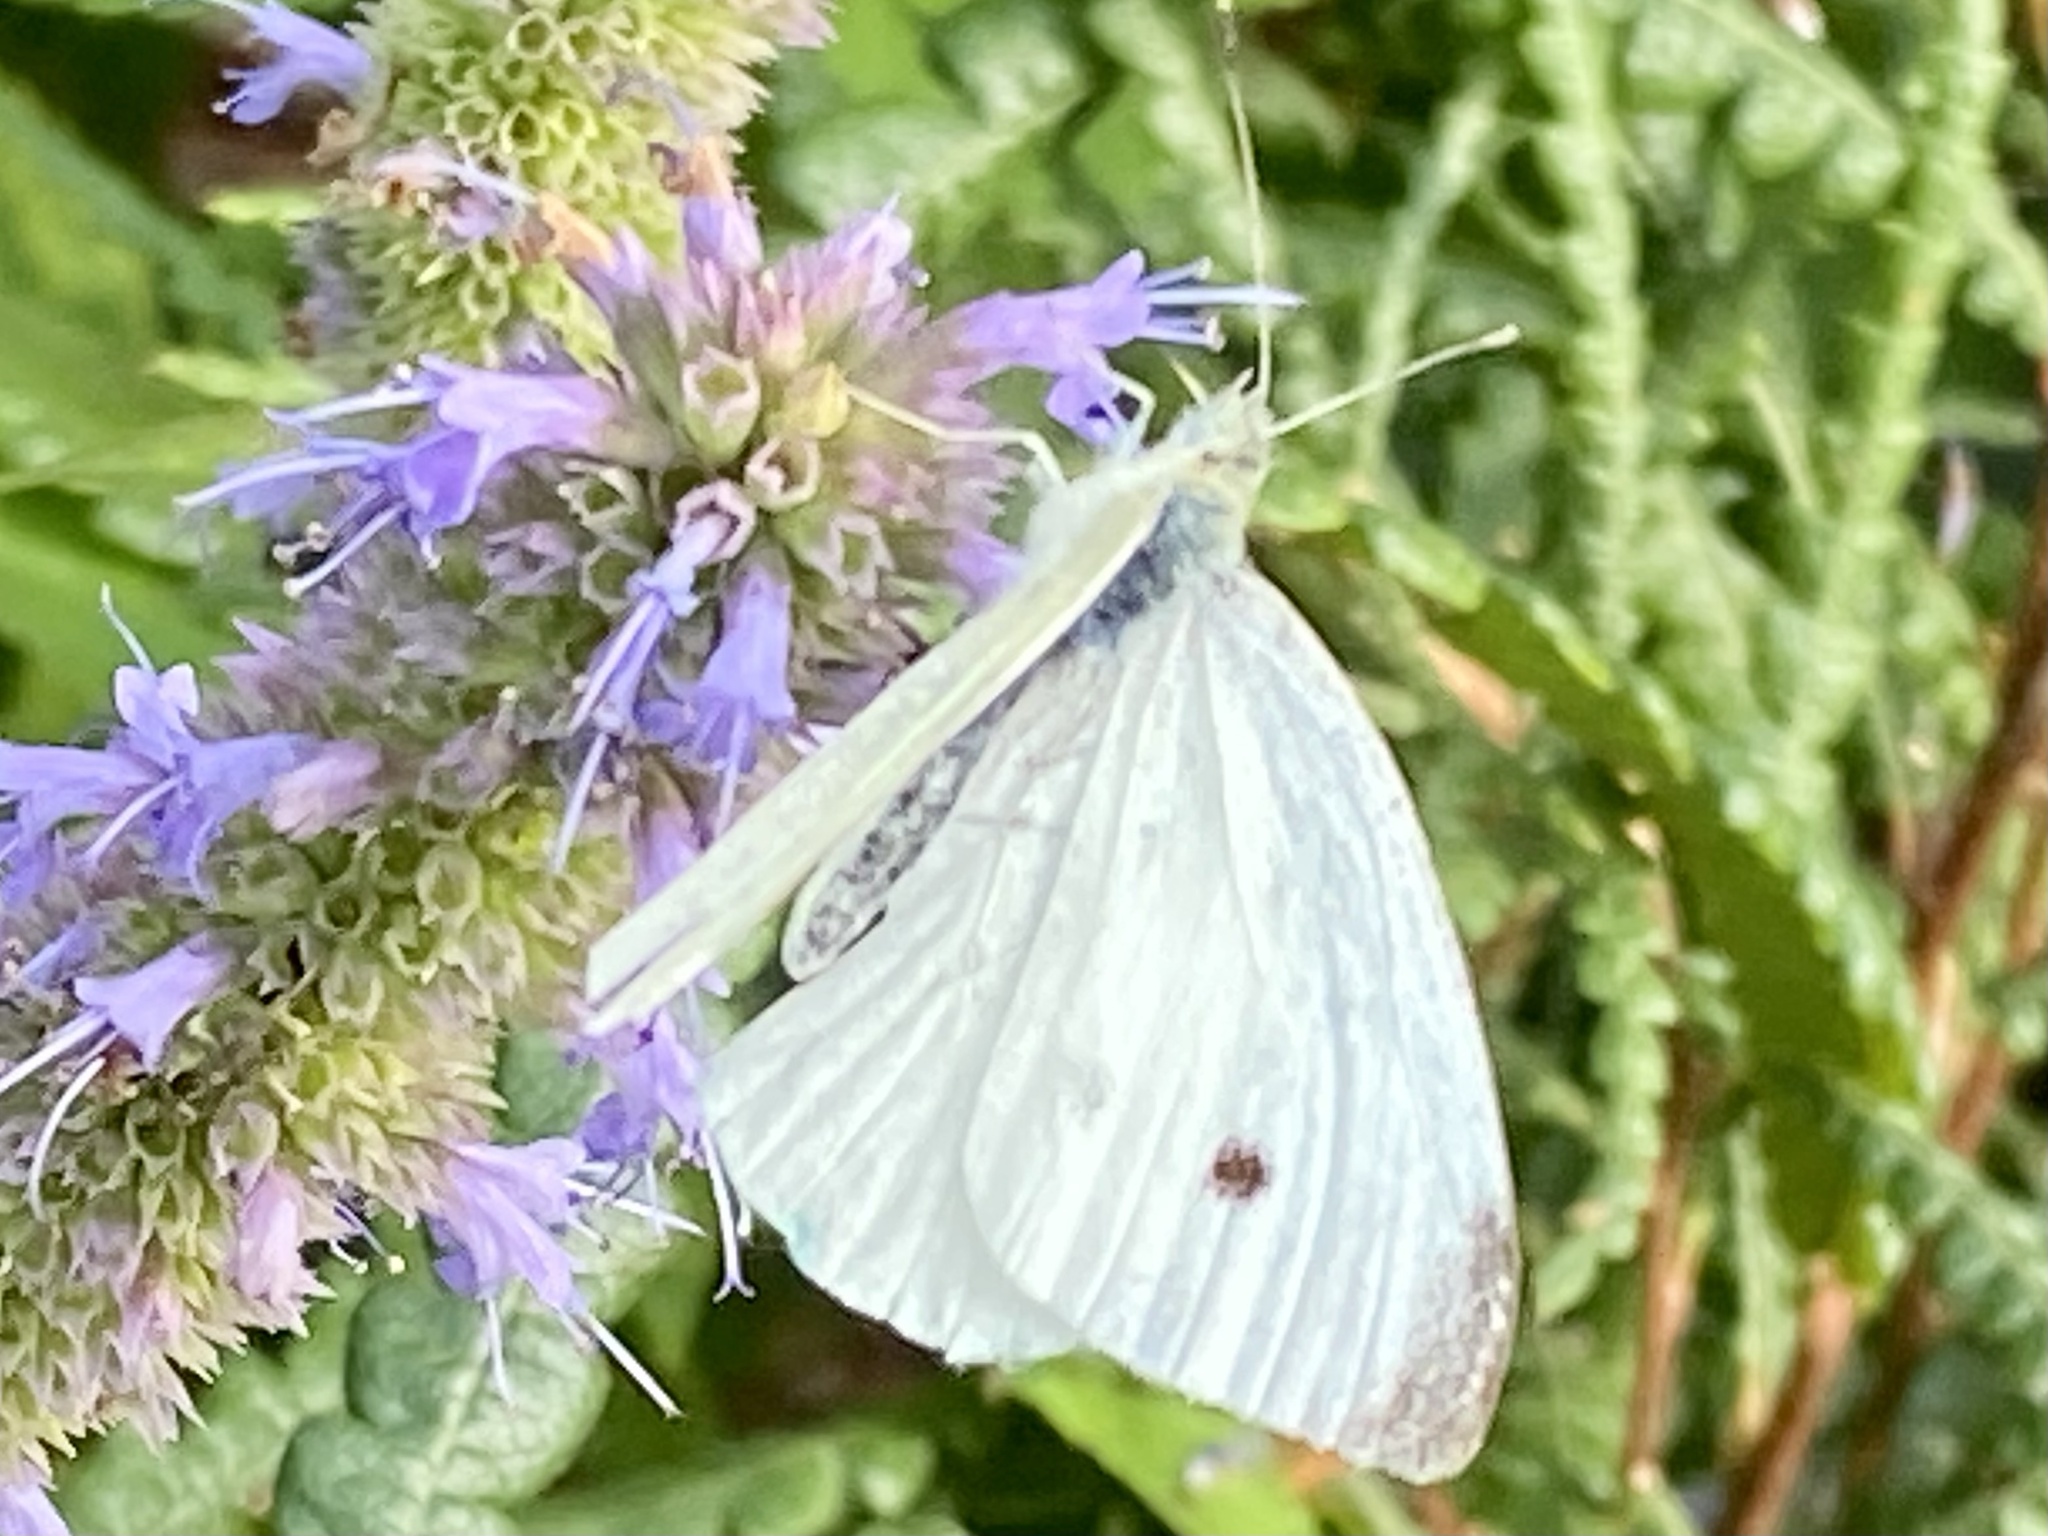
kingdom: Animalia
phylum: Arthropoda
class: Insecta
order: Lepidoptera
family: Pieridae
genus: Pieris
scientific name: Pieris rapae
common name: Small white
